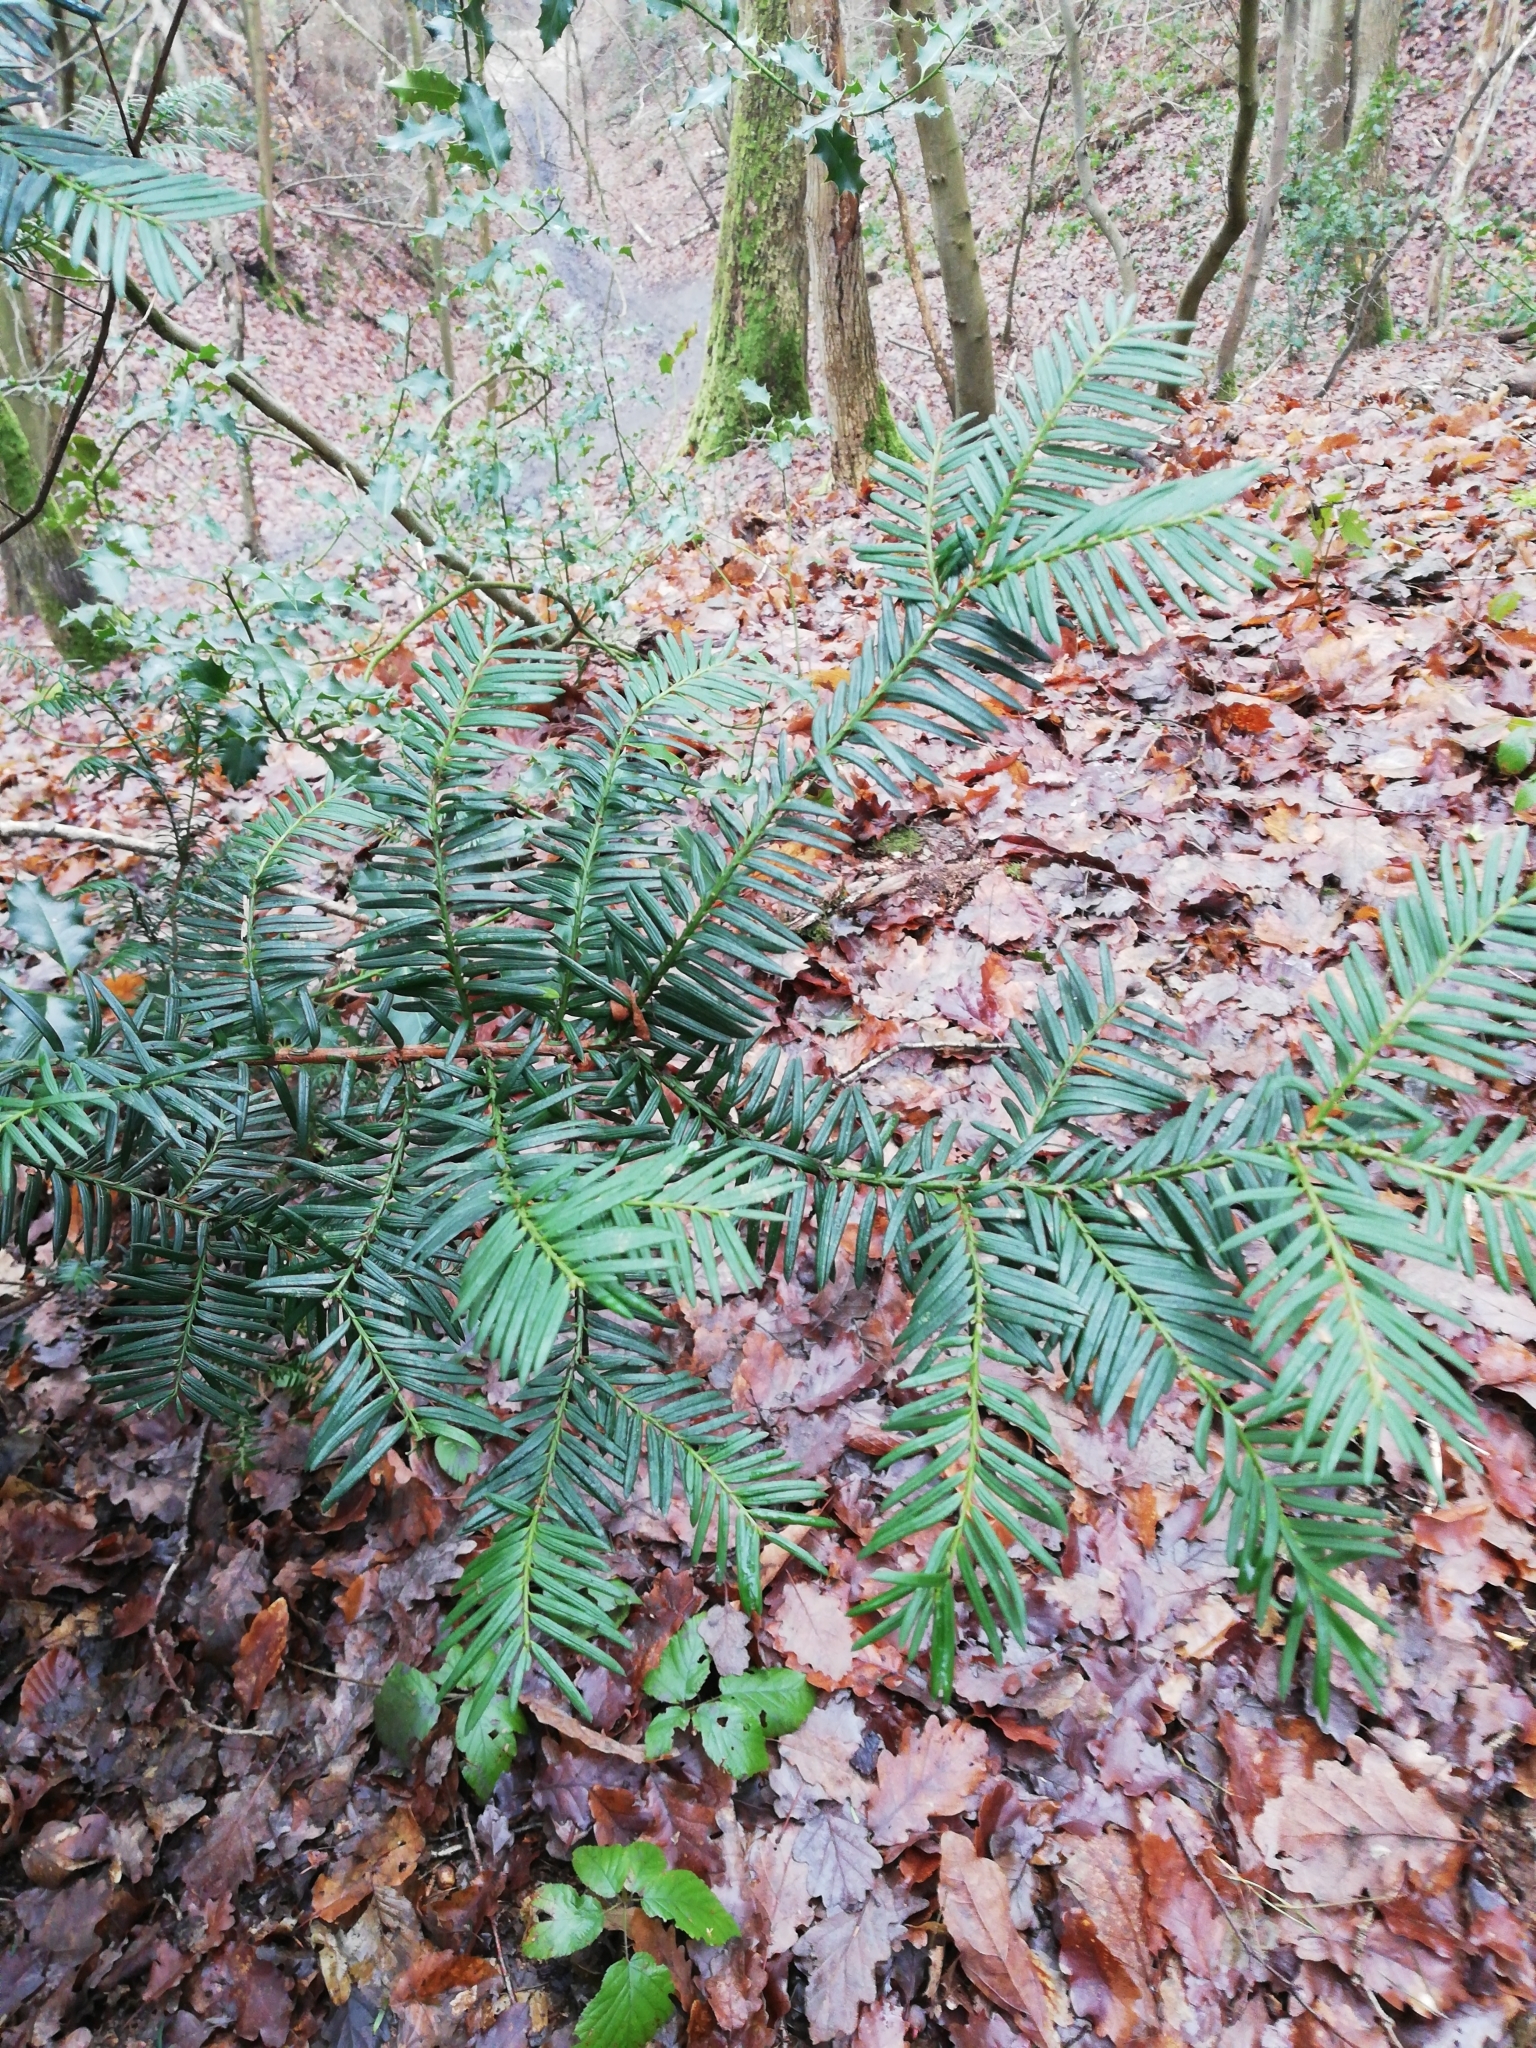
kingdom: Plantae
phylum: Tracheophyta
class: Pinopsida
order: Pinales
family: Taxaceae
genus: Taxus
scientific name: Taxus baccata
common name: Yew
